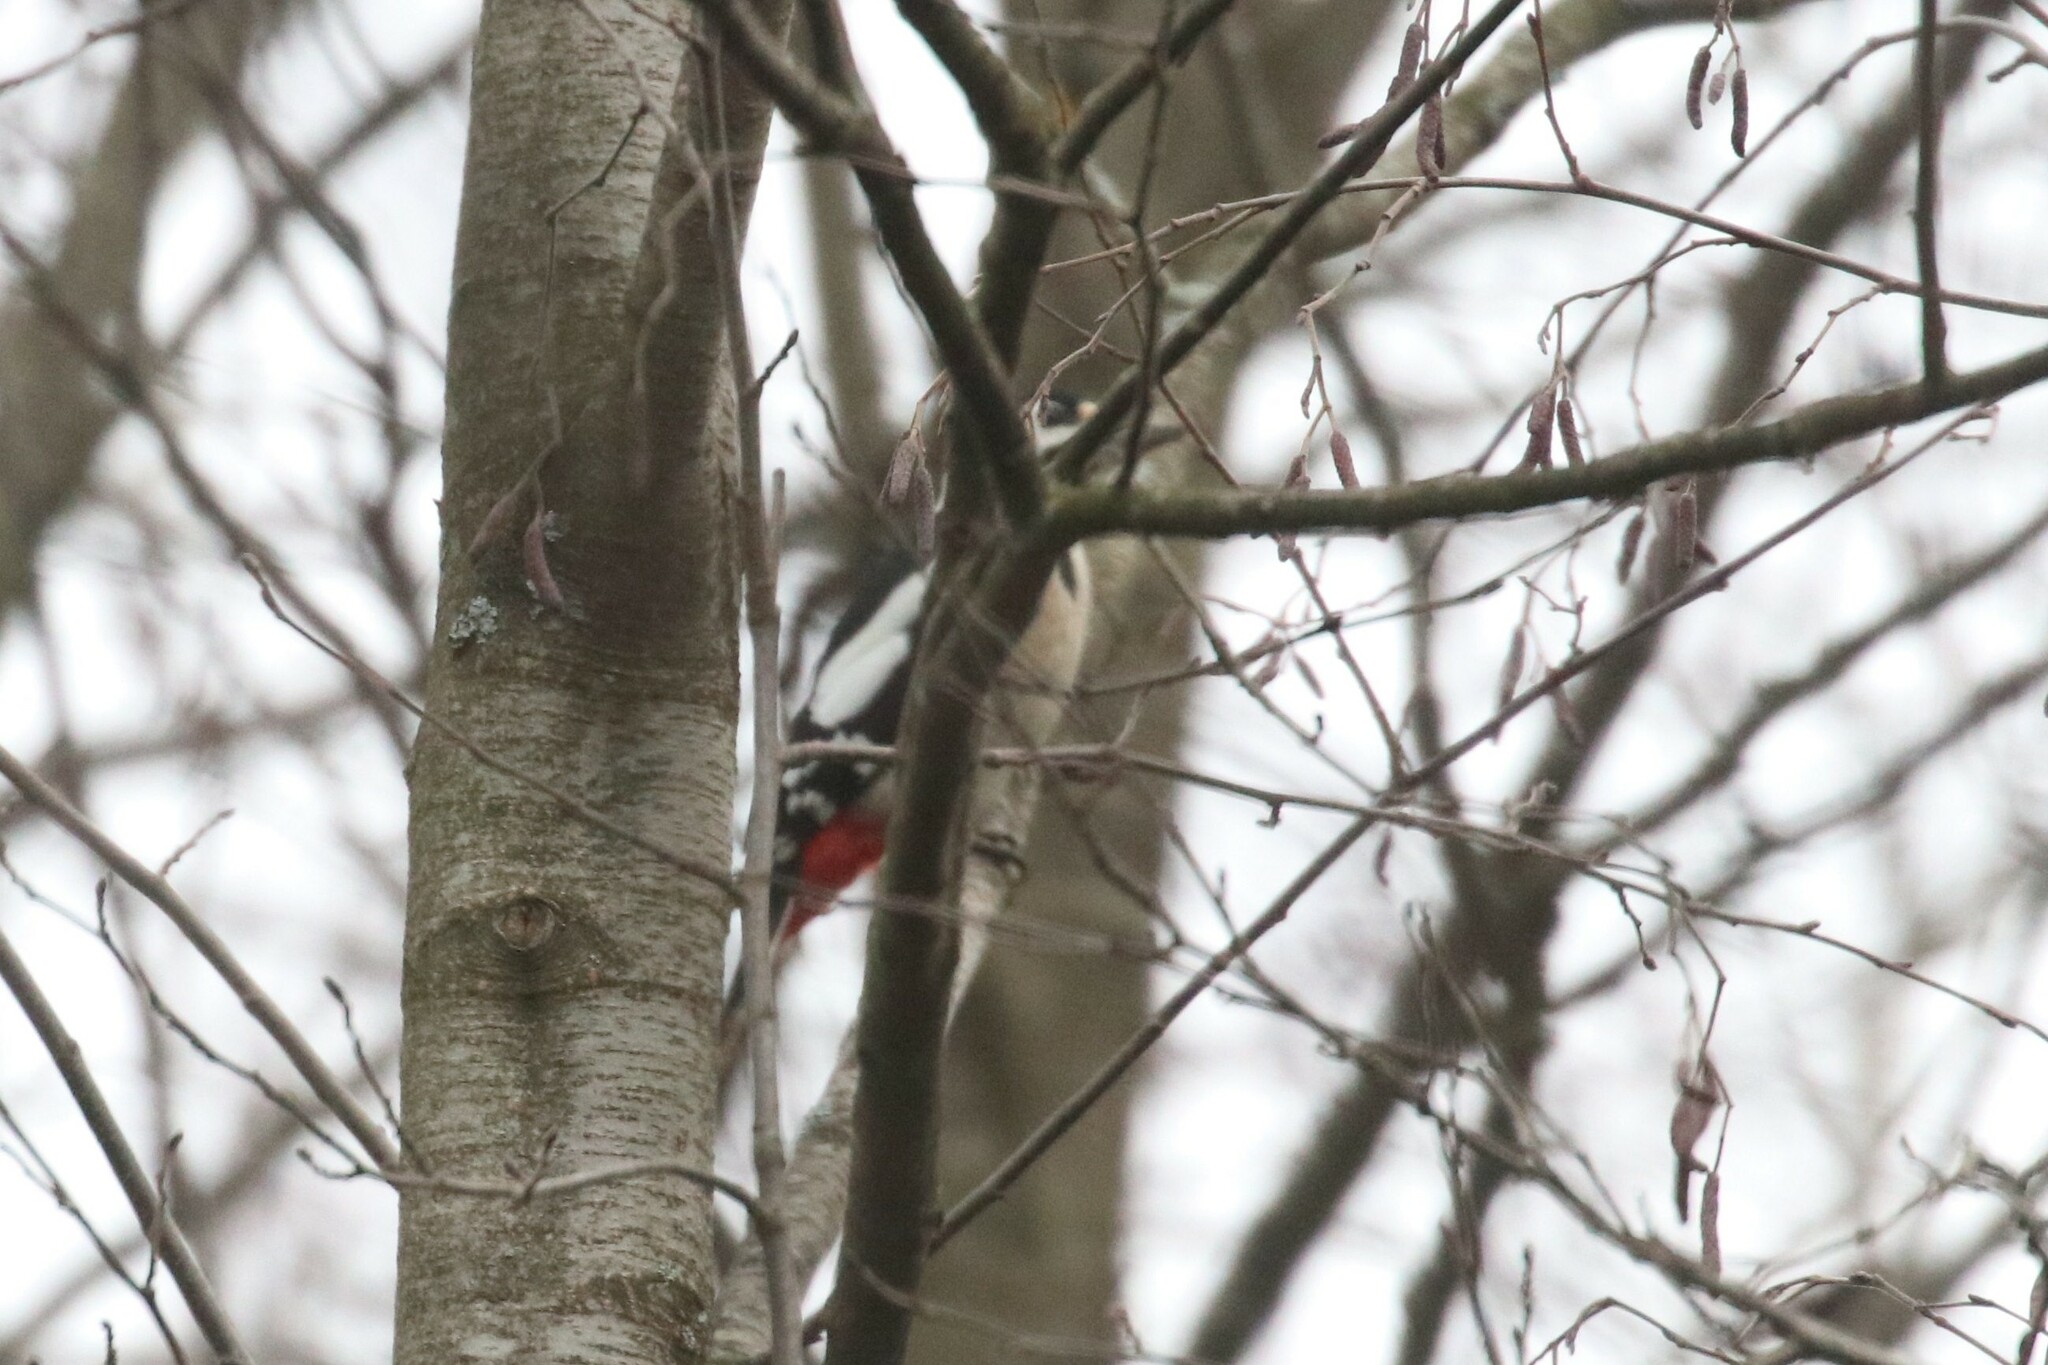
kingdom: Animalia
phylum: Chordata
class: Aves
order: Piciformes
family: Picidae
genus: Dendrocopos
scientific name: Dendrocopos major
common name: Great spotted woodpecker
